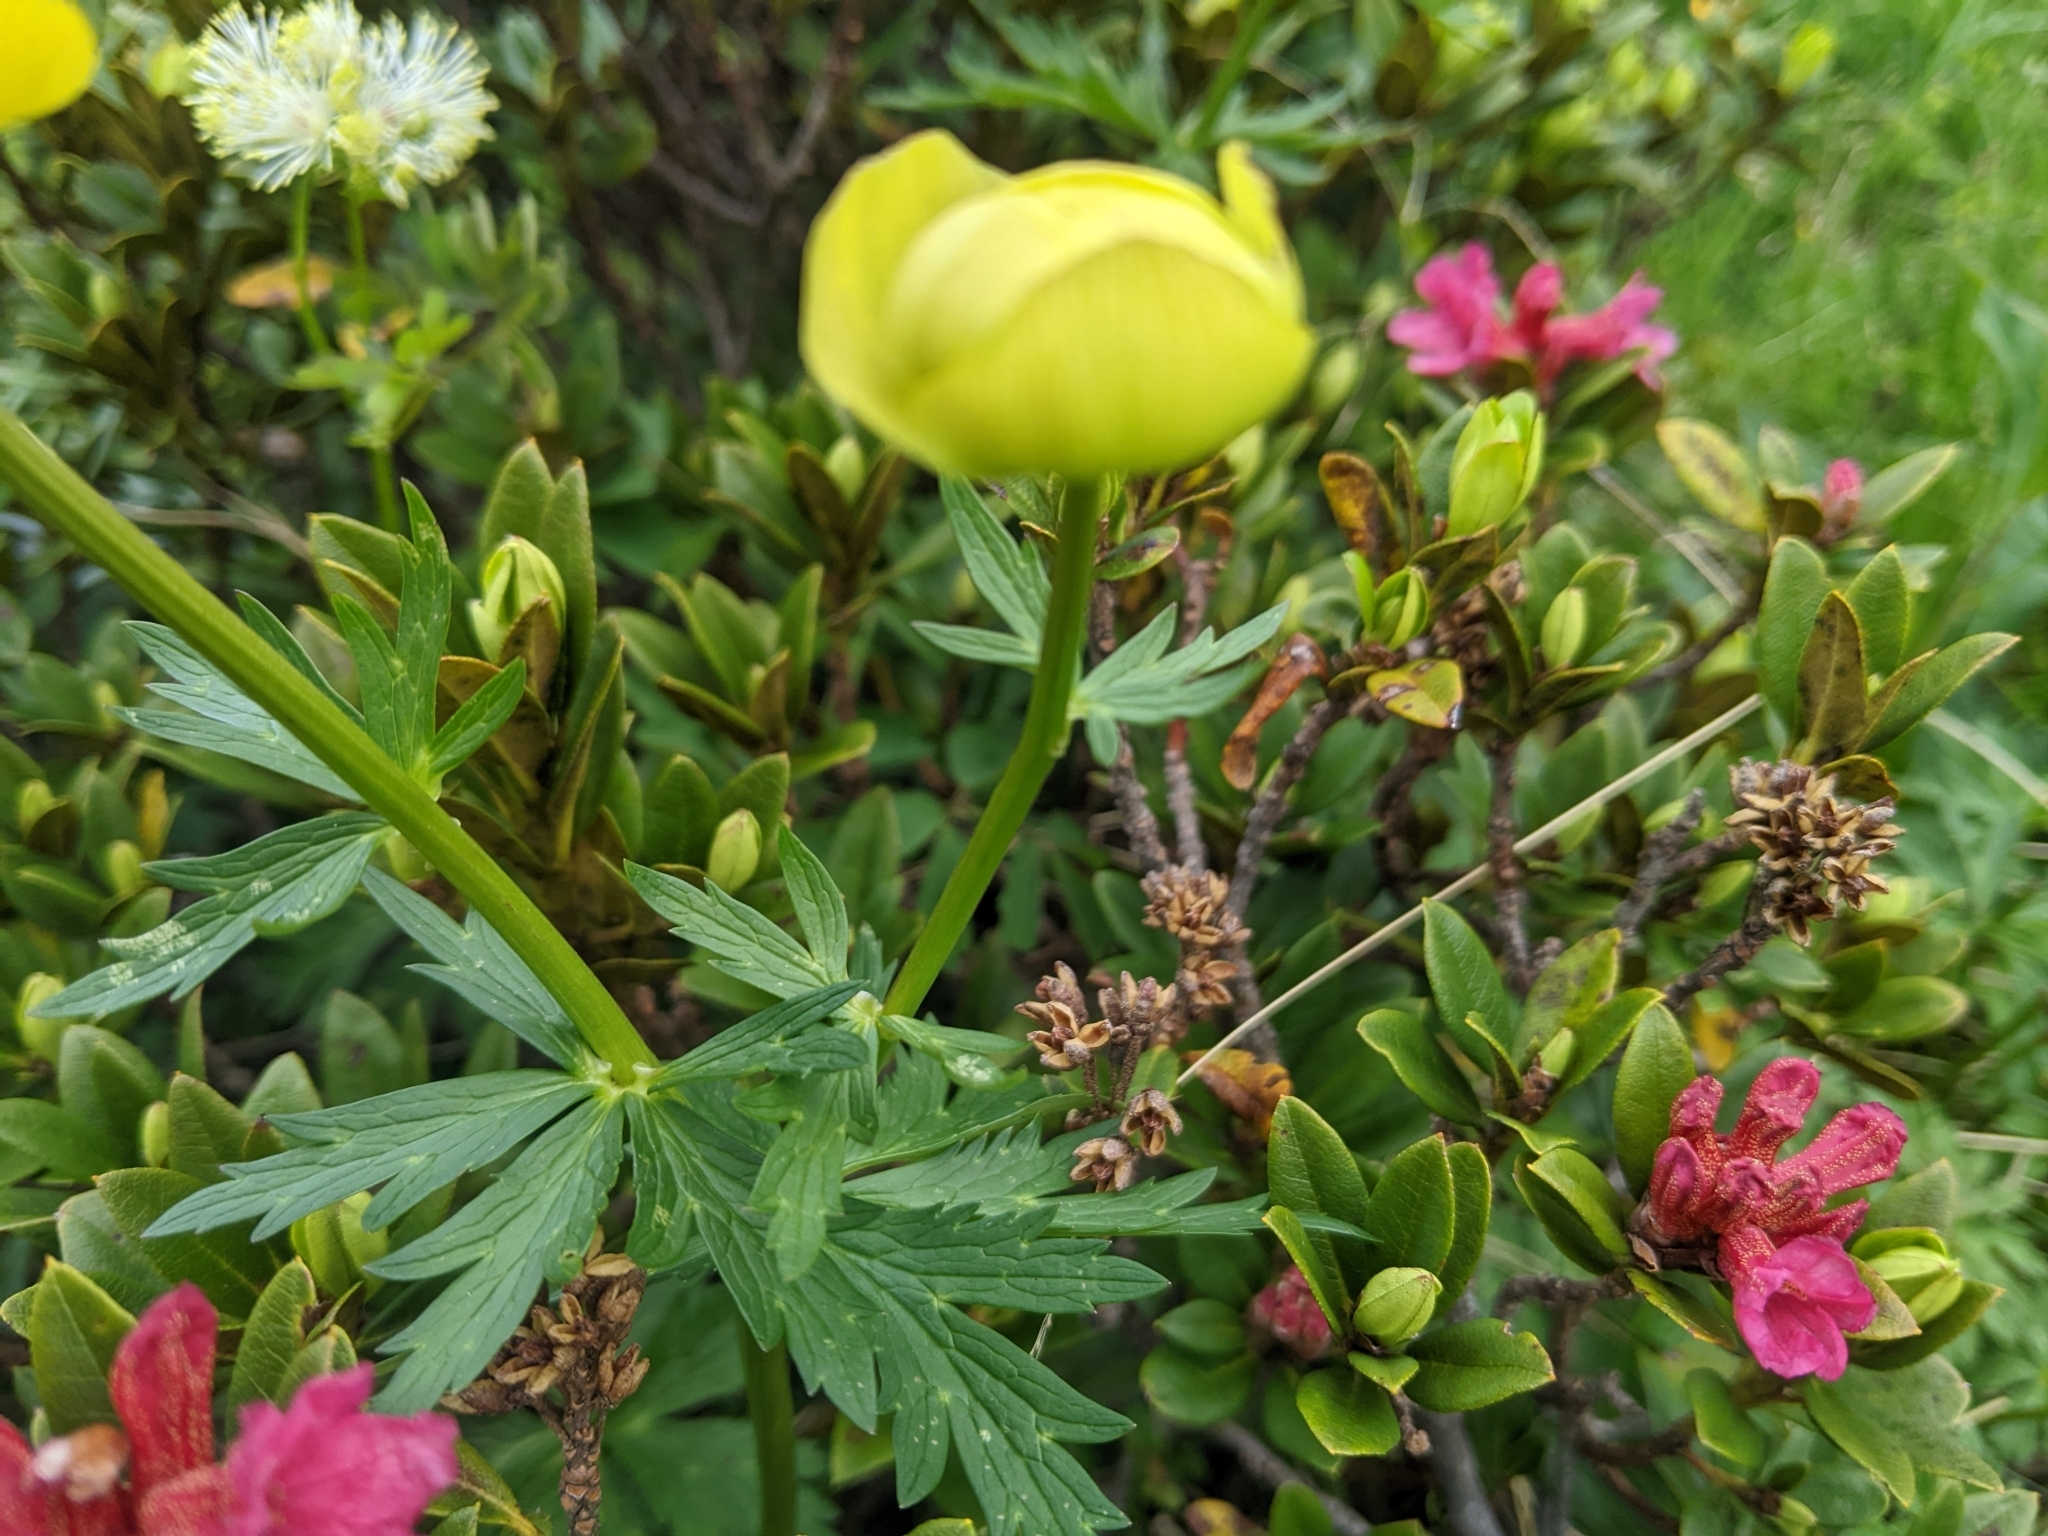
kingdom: Plantae
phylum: Tracheophyta
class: Magnoliopsida
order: Ranunculales
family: Ranunculaceae
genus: Trollius
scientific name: Trollius europaeus
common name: European globeflower
